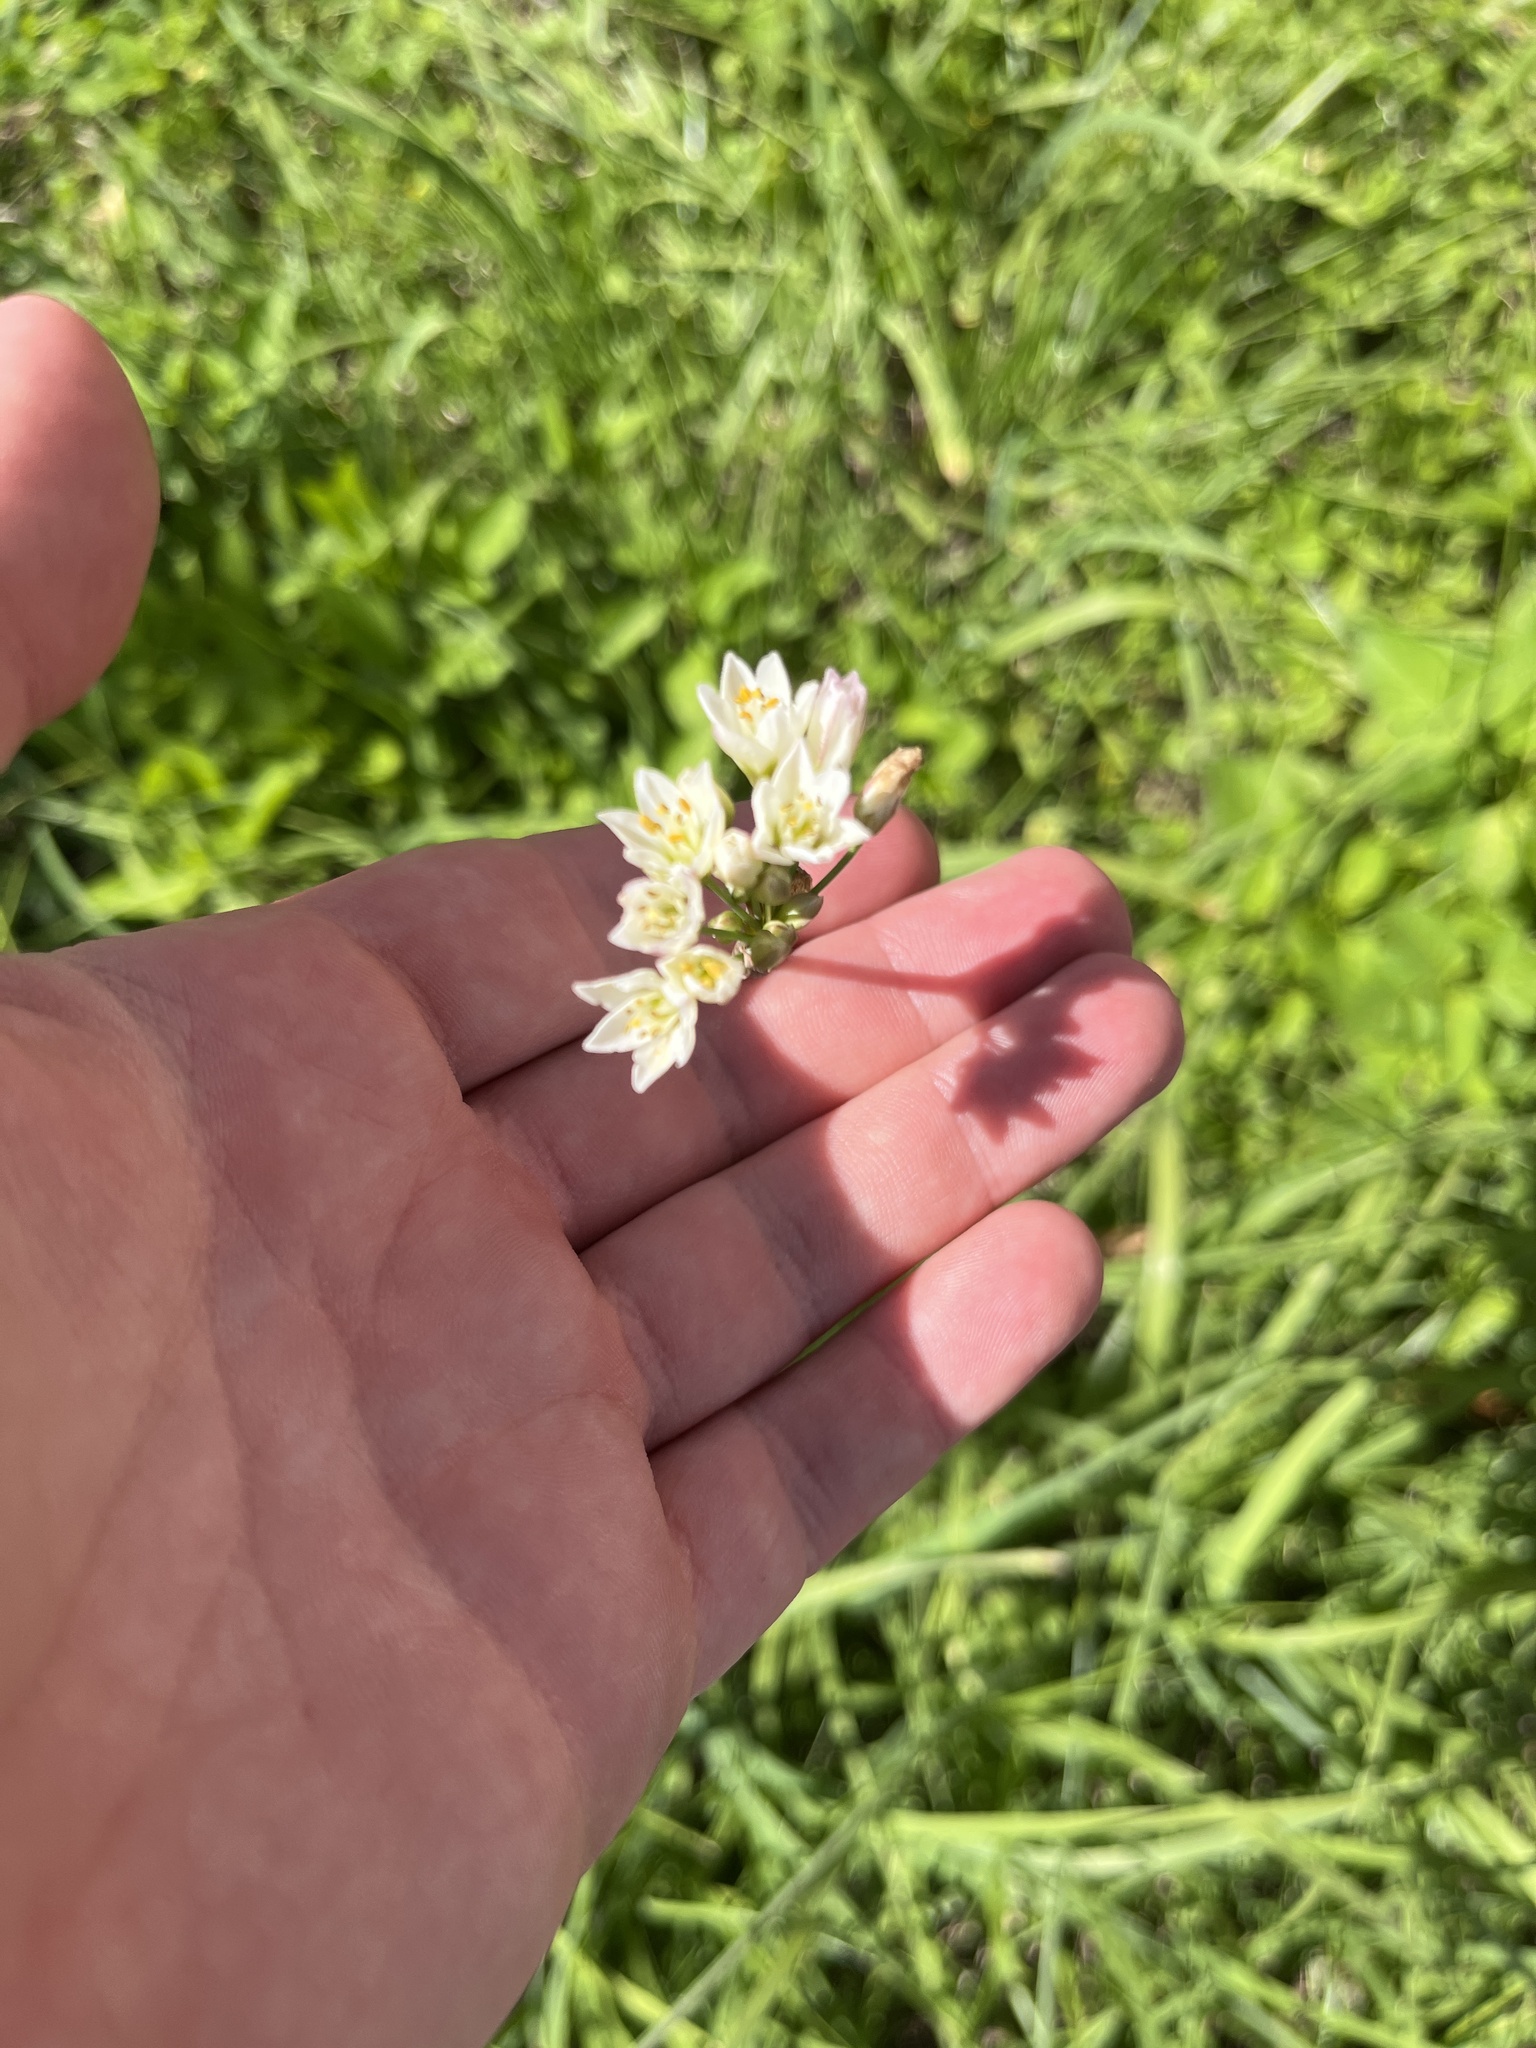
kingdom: Plantae
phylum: Tracheophyta
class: Liliopsida
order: Asparagales
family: Amaryllidaceae
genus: Nothoscordum
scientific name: Nothoscordum gracile
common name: Slender false garlic
